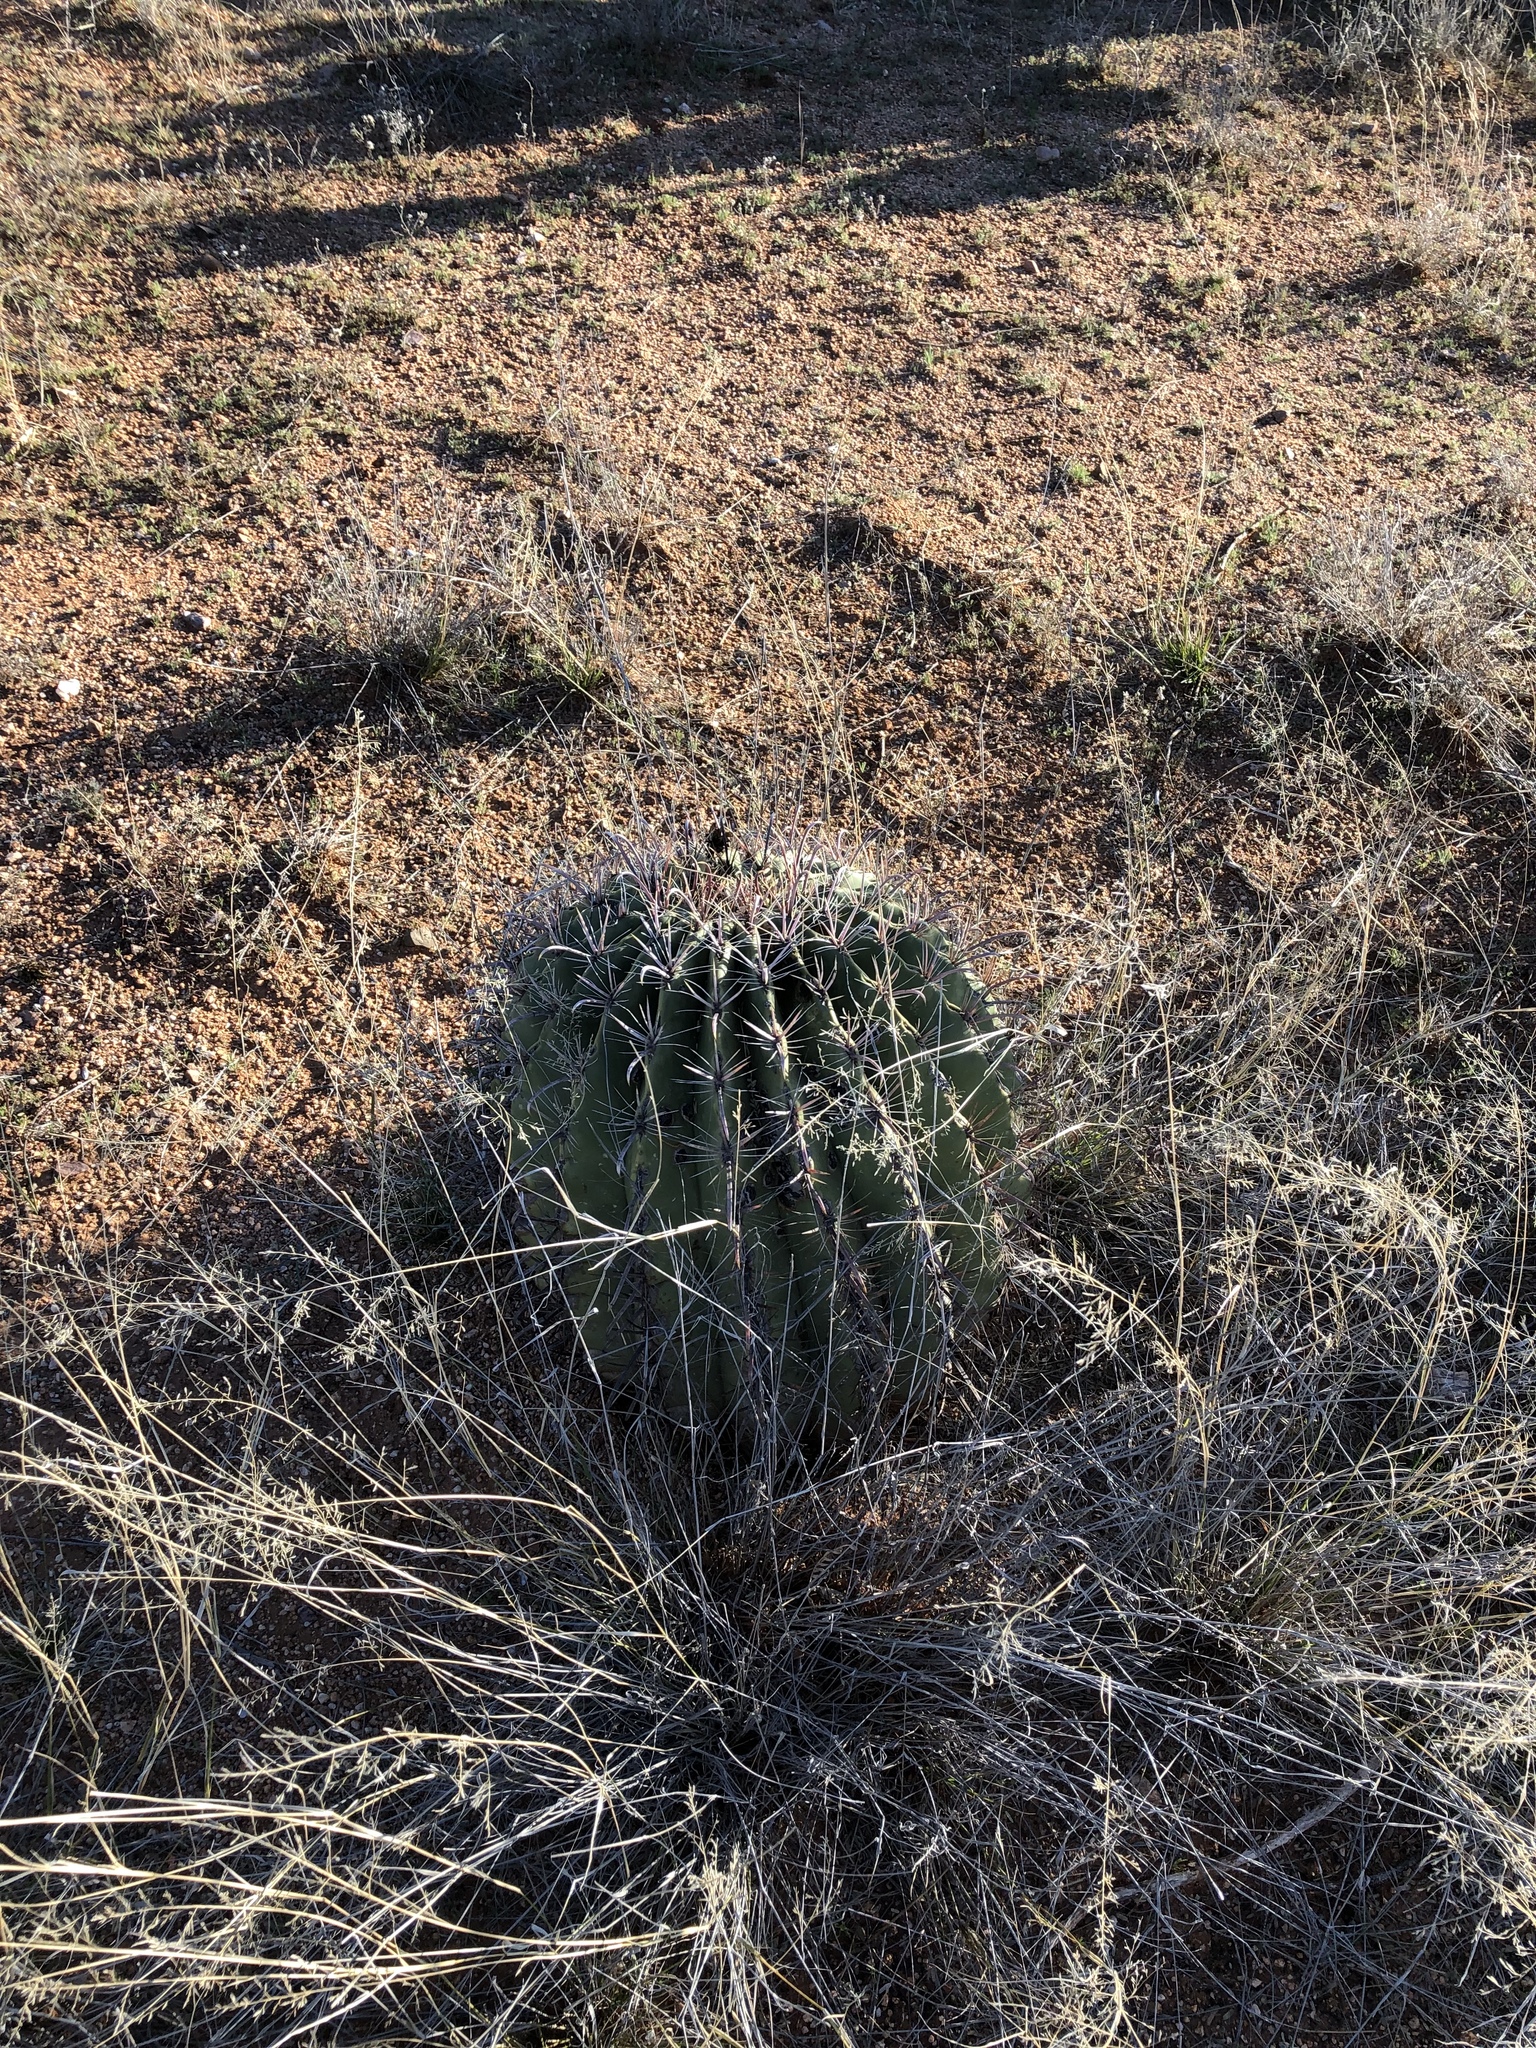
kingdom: Plantae
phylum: Tracheophyta
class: Magnoliopsida
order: Caryophyllales
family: Cactaceae
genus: Ferocactus
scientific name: Ferocactus wislizeni
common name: Candy barrel cactus
